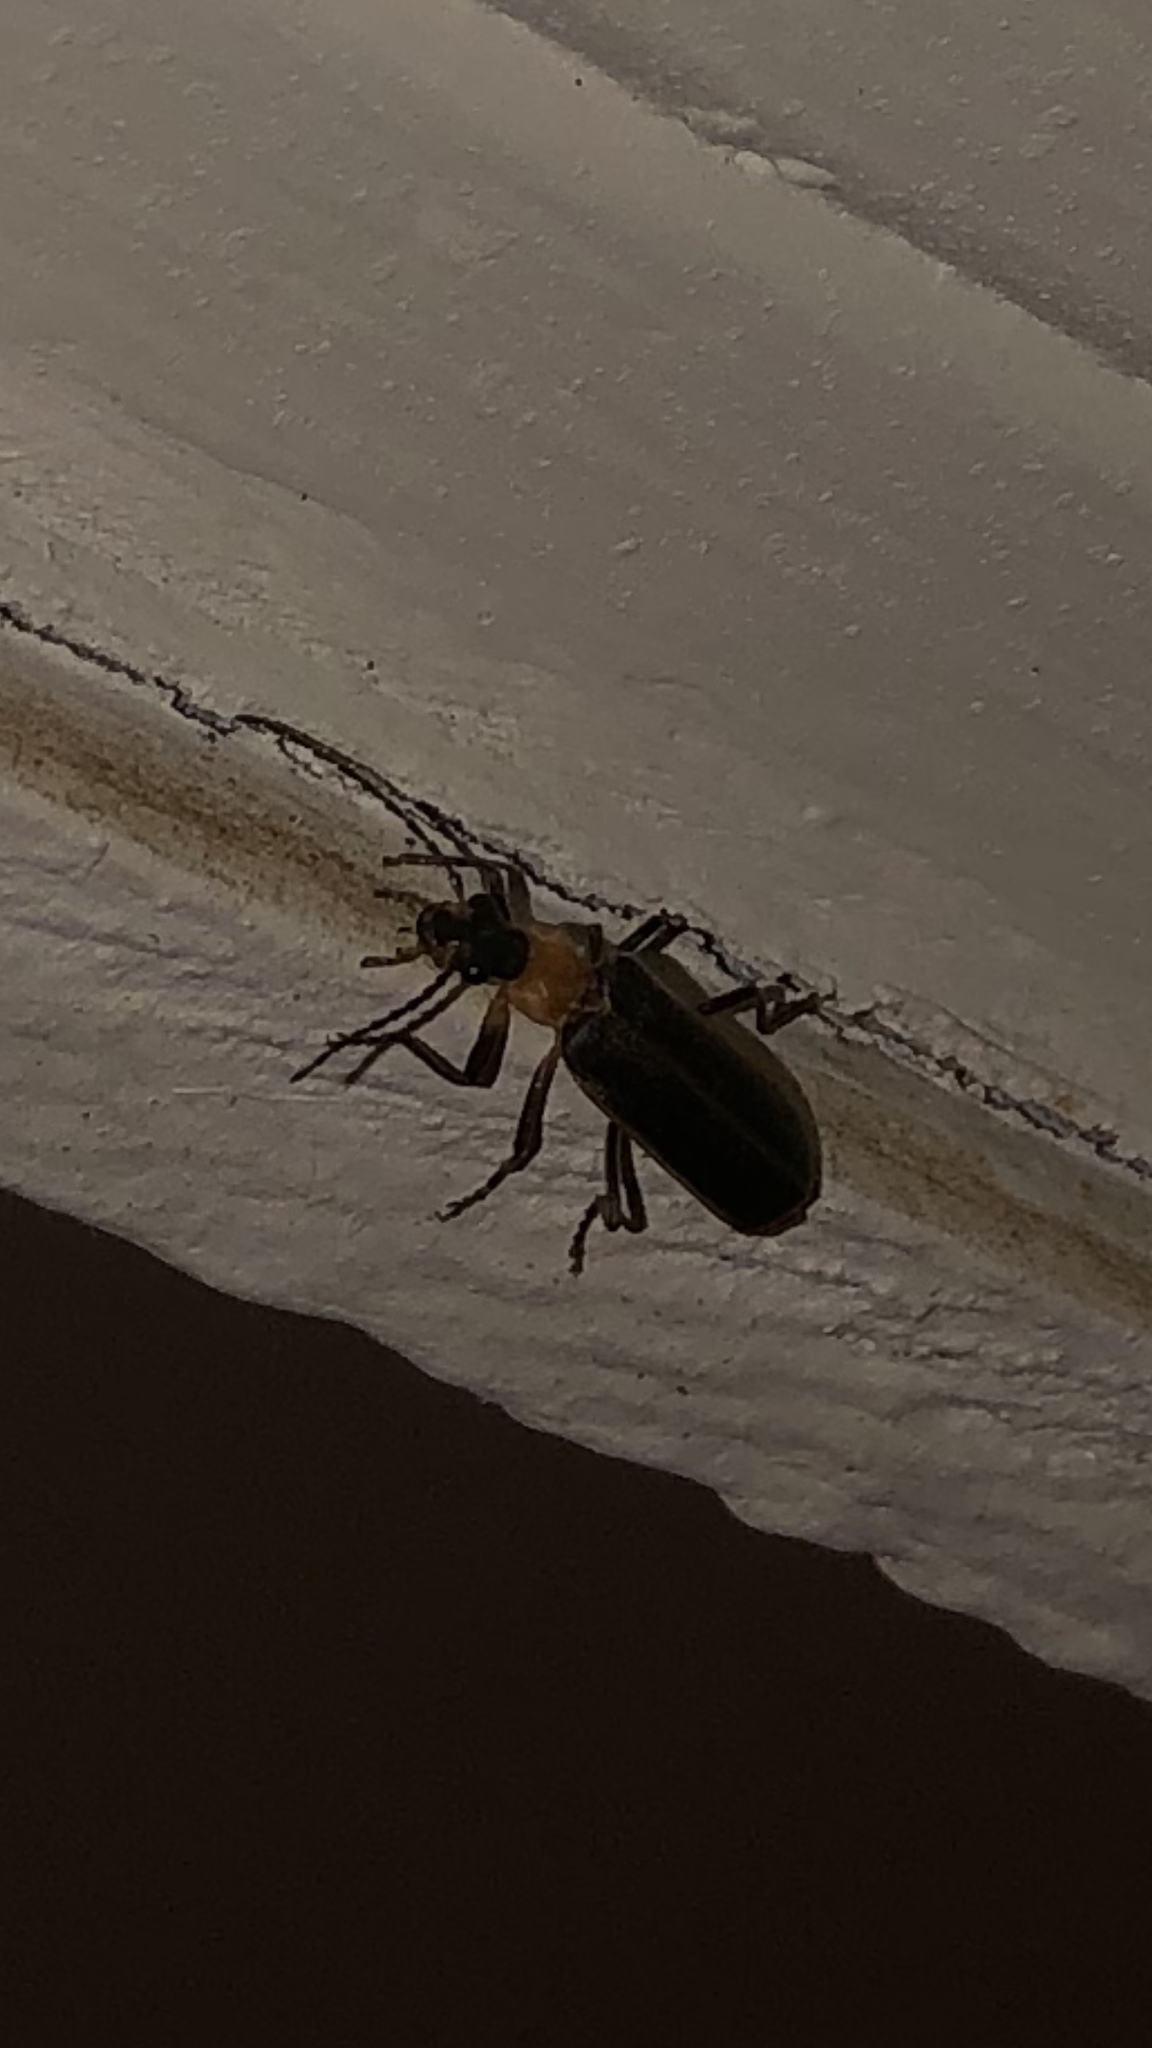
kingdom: Animalia
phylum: Arthropoda
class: Insecta
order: Coleoptera
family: Cantharidae
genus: Podabrus
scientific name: Podabrus flavicollis
